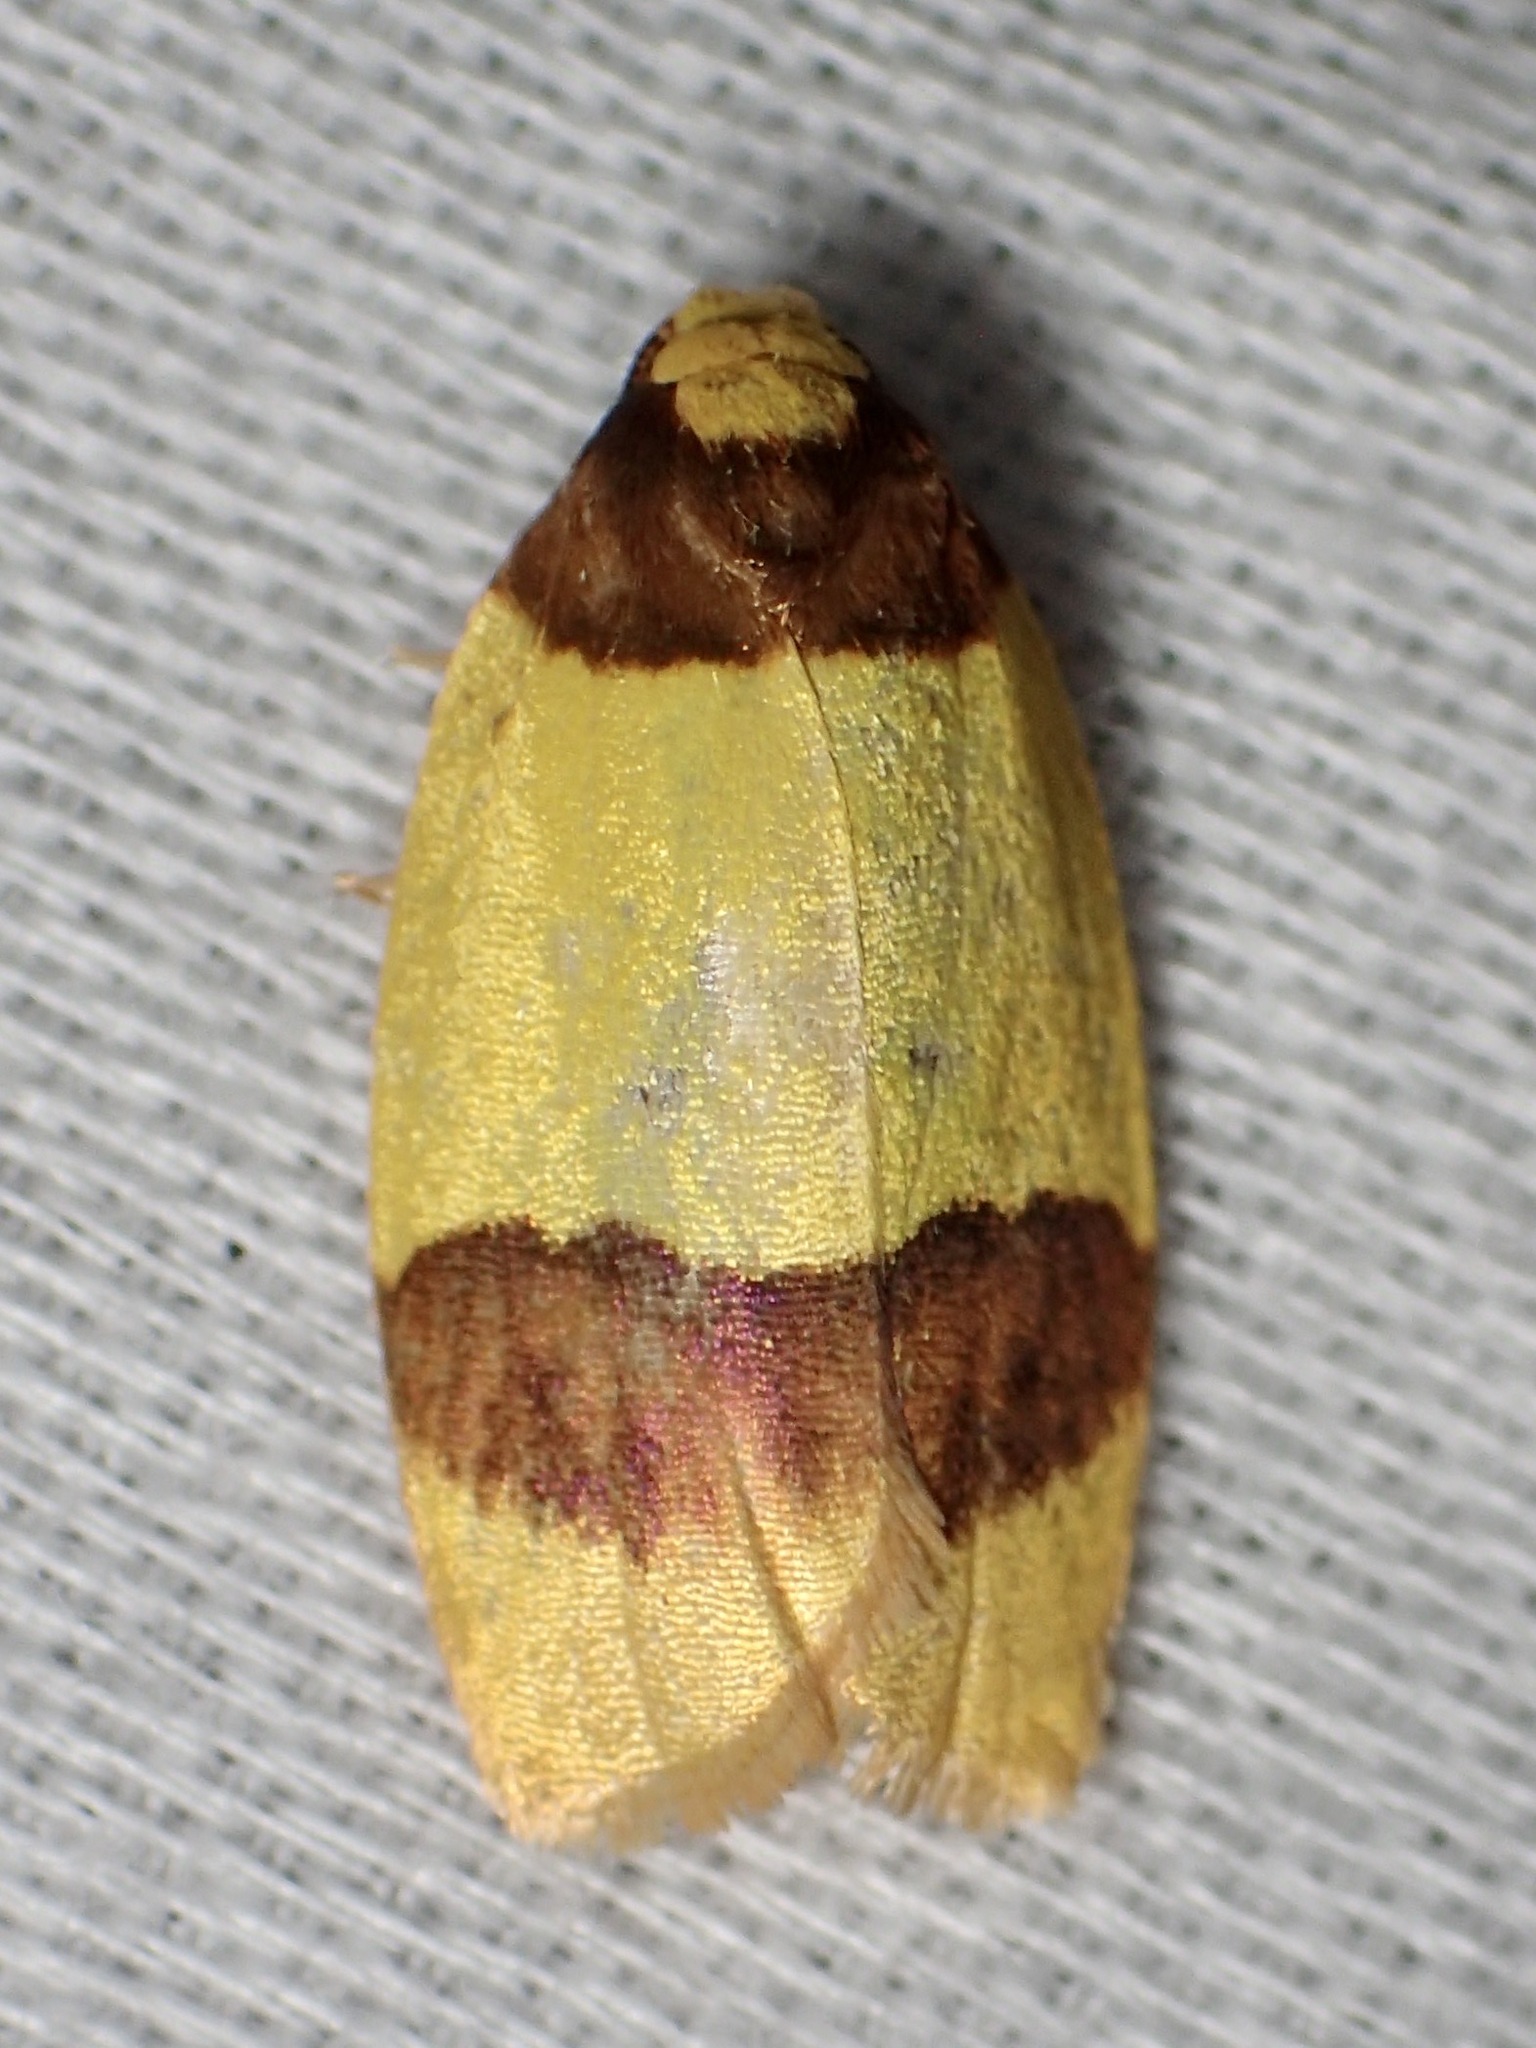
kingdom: Animalia
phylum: Arthropoda
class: Insecta
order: Lepidoptera
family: Erebidae
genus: Heterallactis
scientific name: Heterallactis euchrysa
